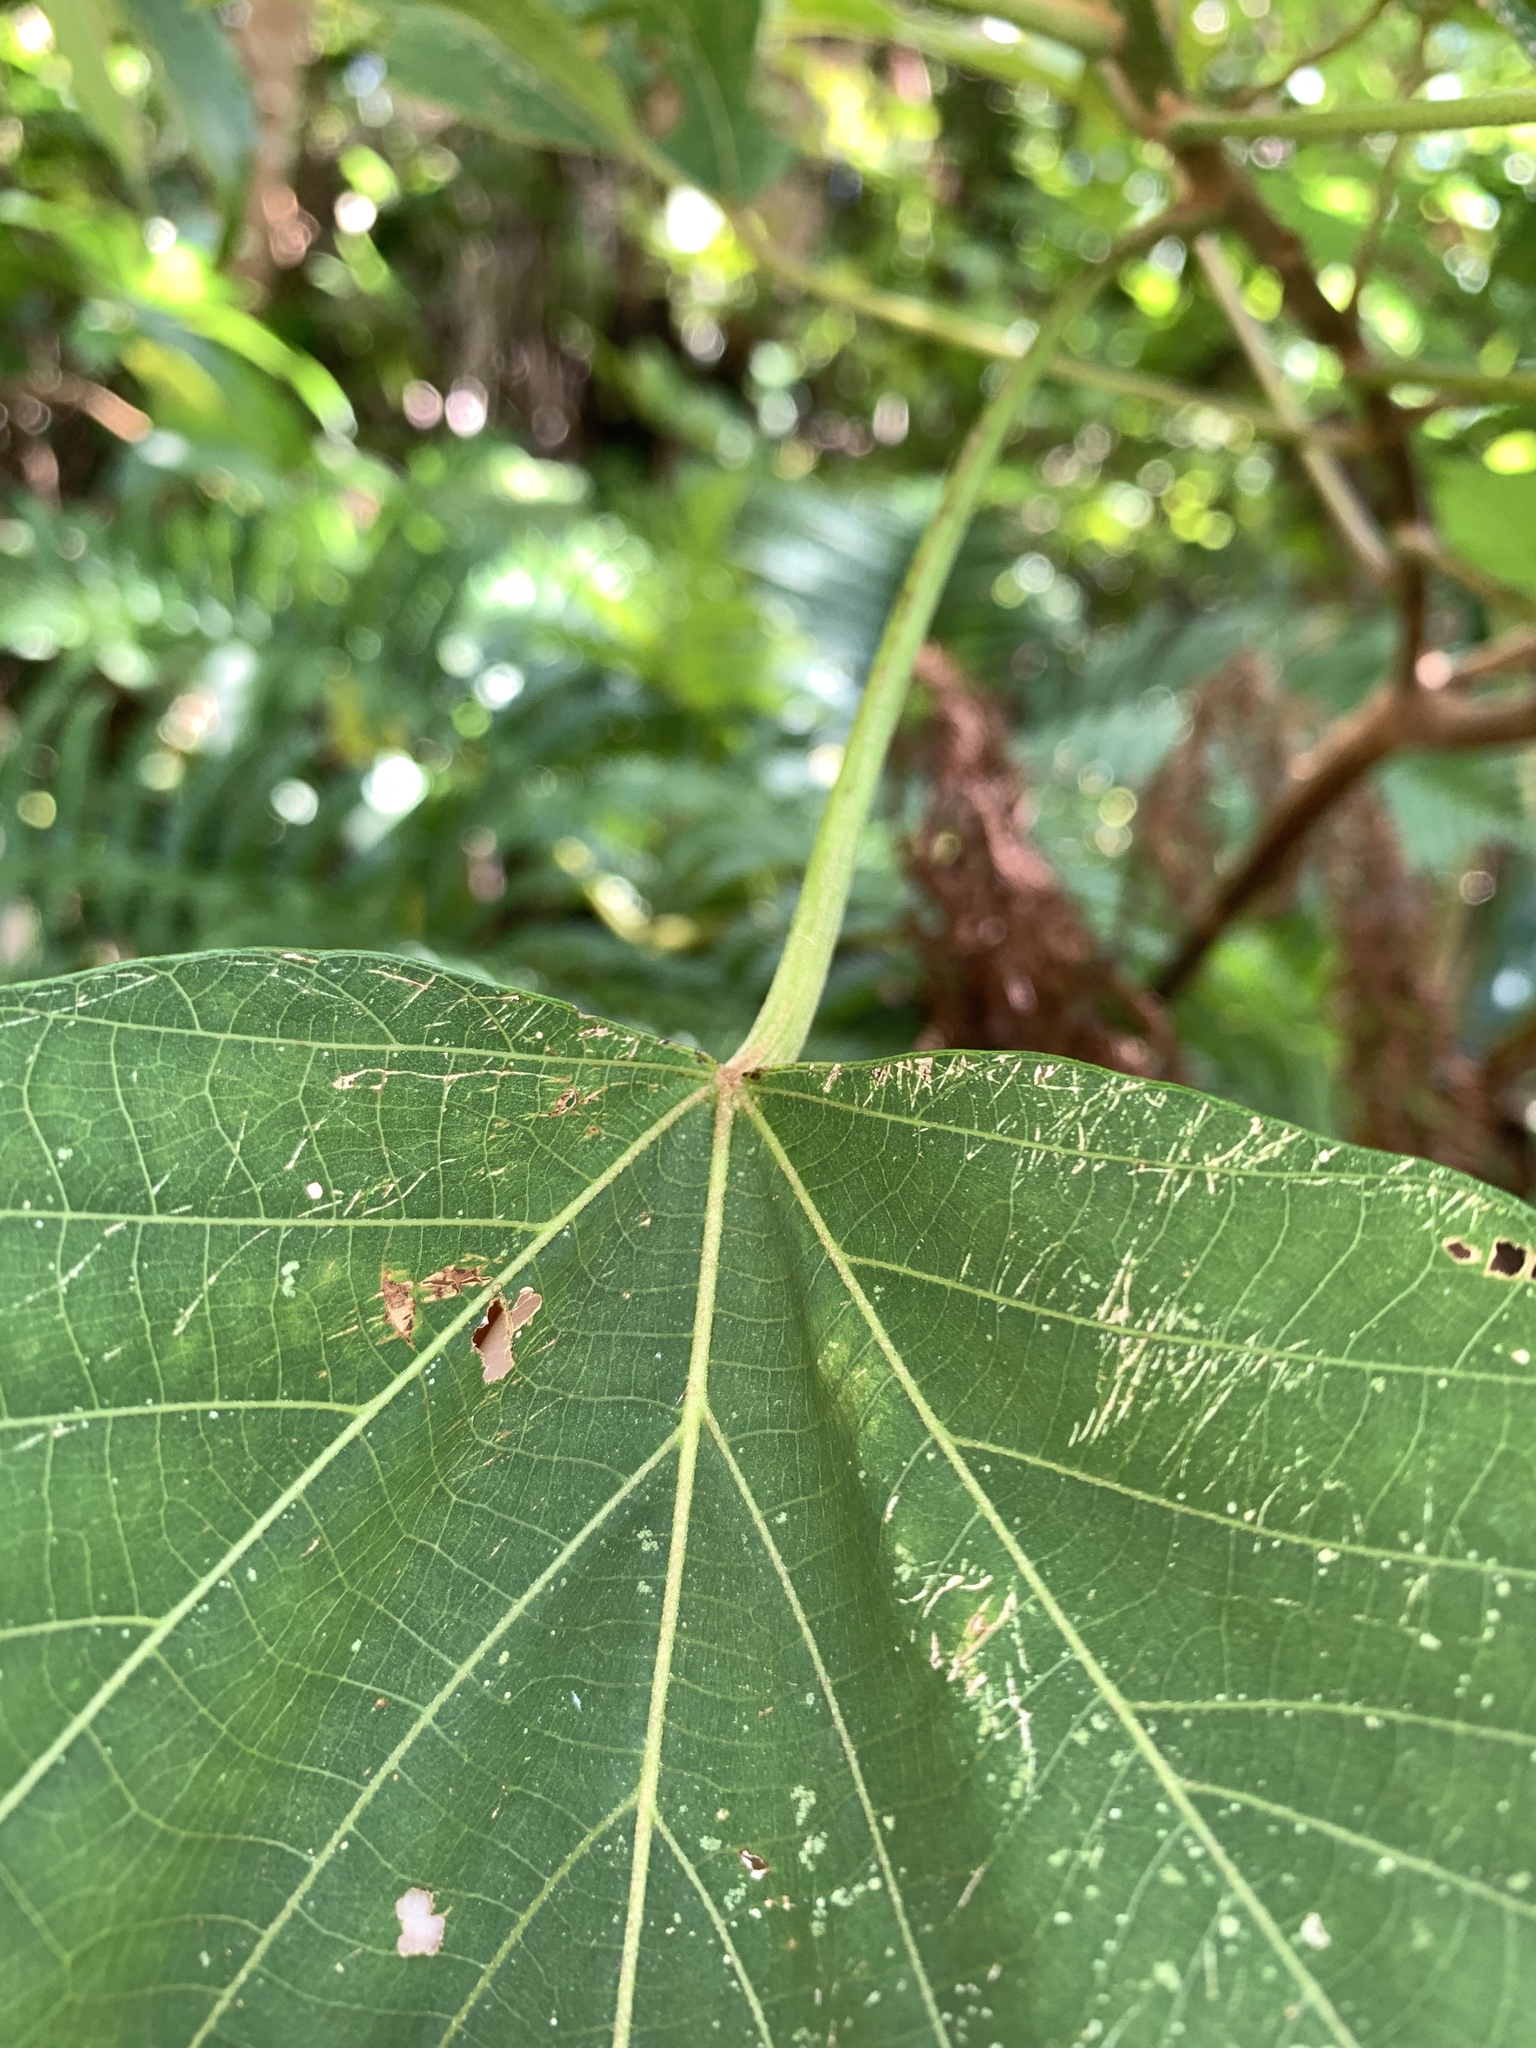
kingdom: Plantae
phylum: Tracheophyta
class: Magnoliopsida
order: Malpighiales
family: Euphorbiaceae
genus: Mallotus
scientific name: Mallotus japonicus
